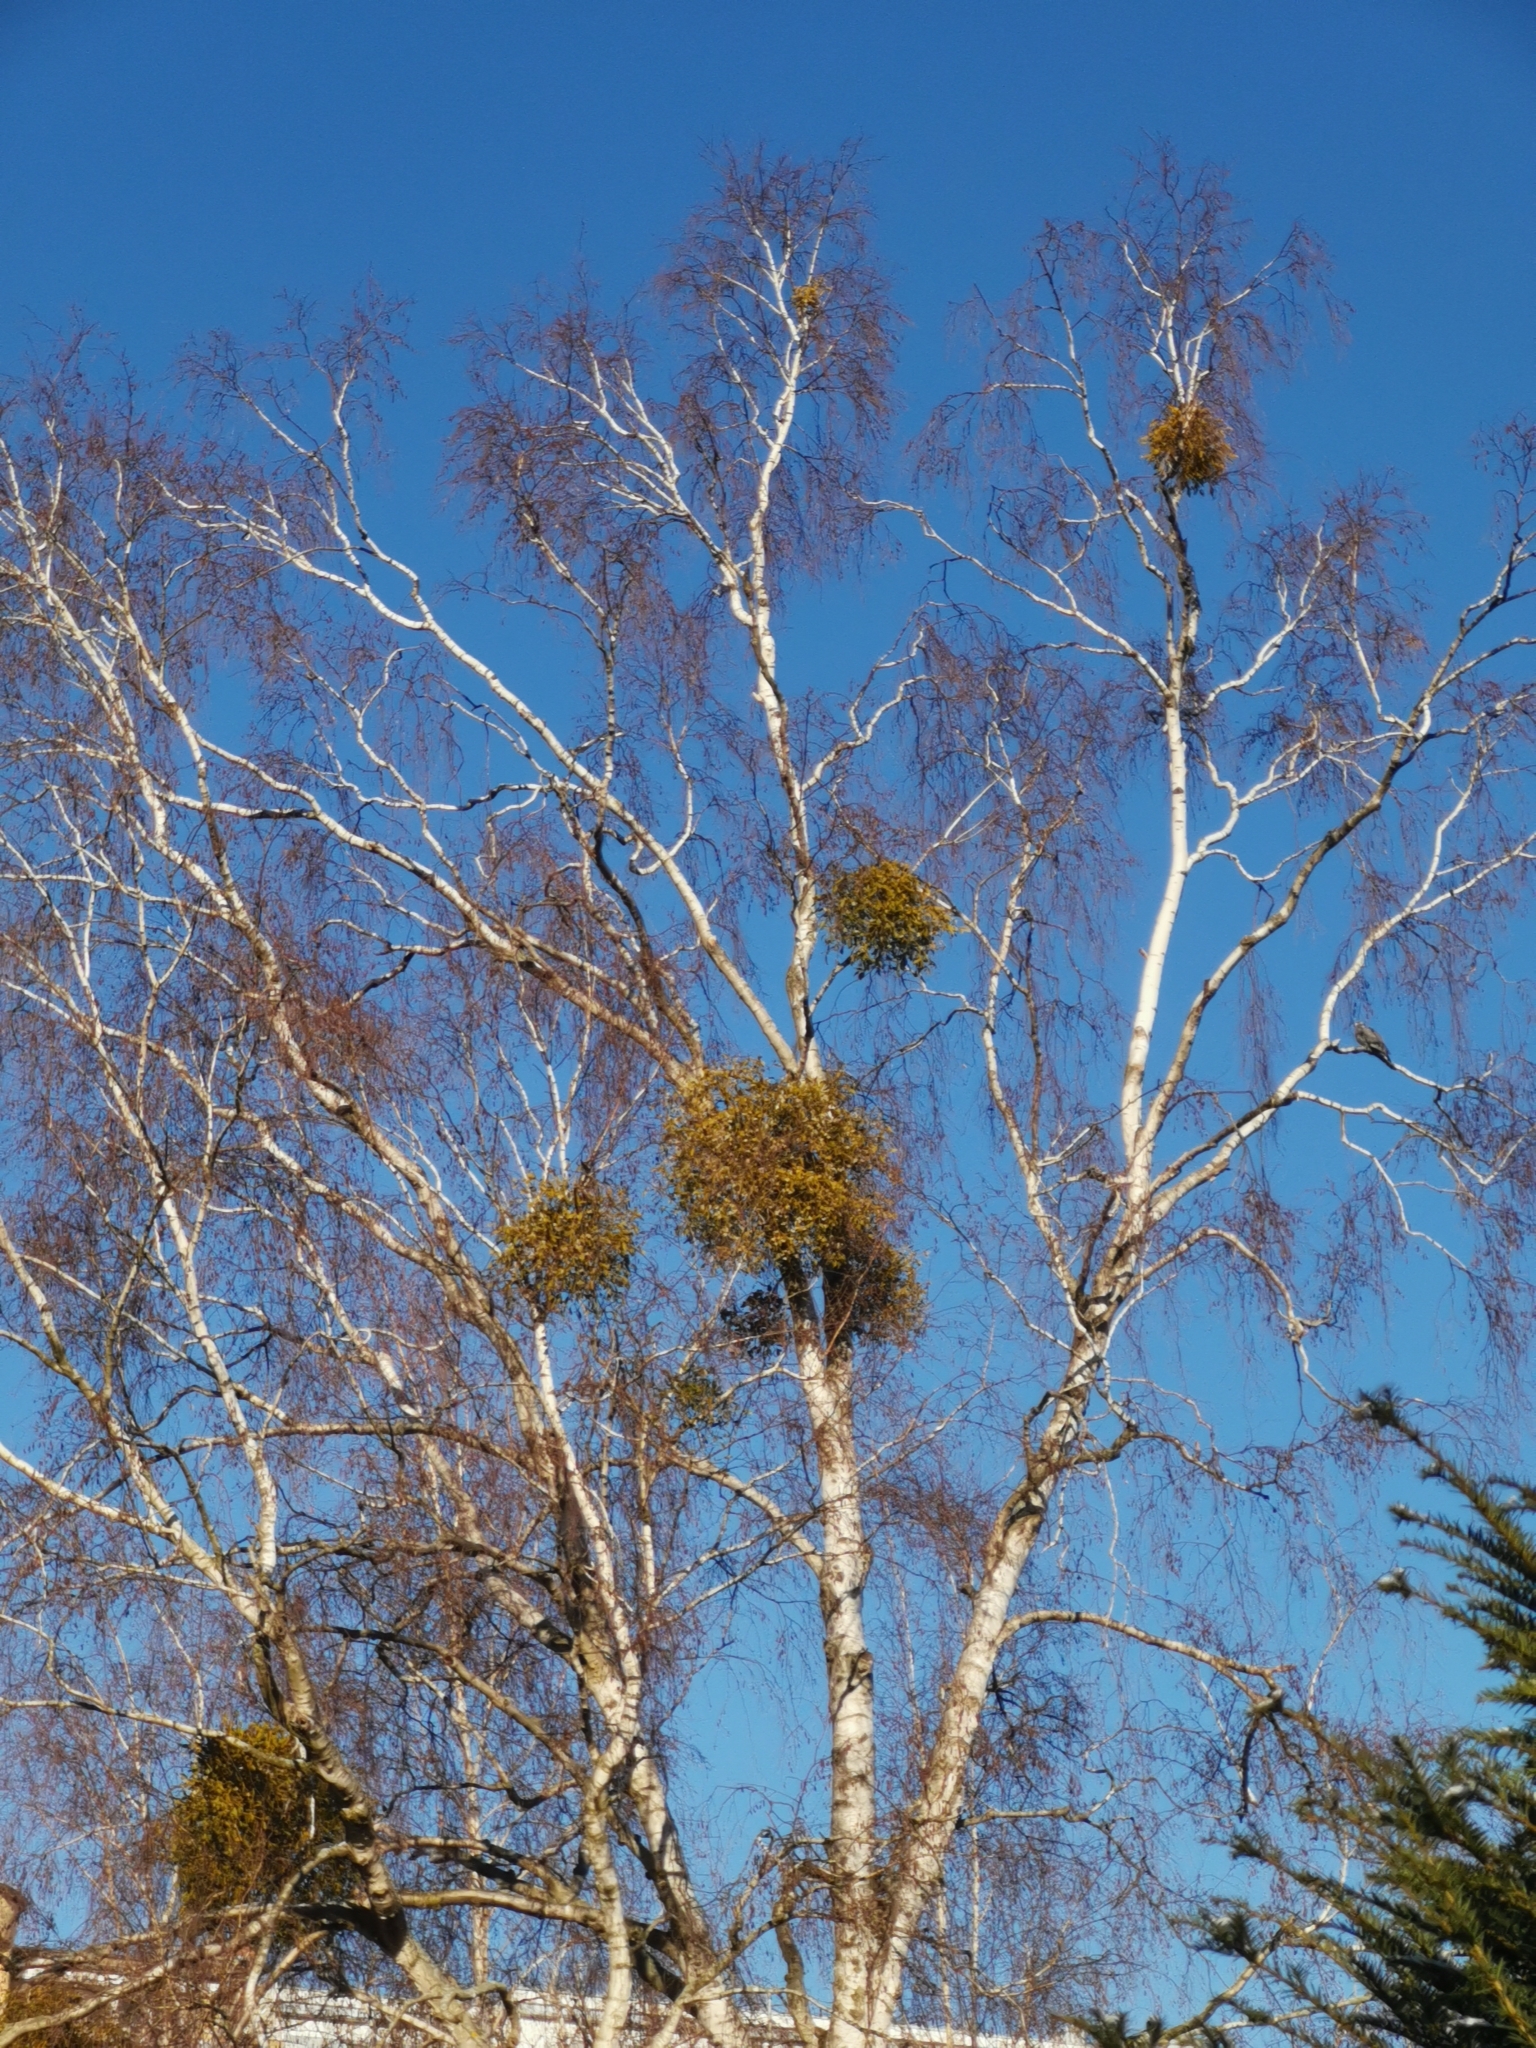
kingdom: Plantae
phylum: Tracheophyta
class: Magnoliopsida
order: Santalales
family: Viscaceae
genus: Viscum
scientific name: Viscum album
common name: Mistletoe
